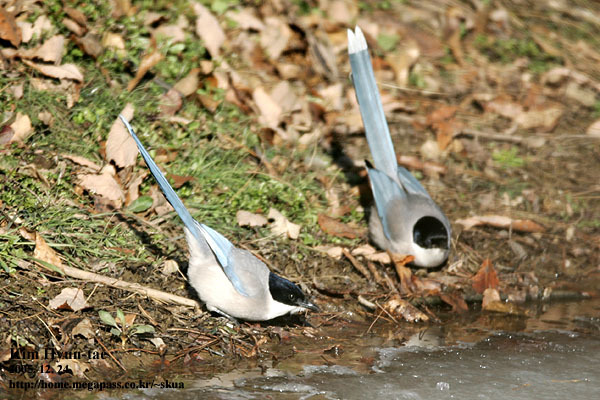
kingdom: Animalia
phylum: Chordata
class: Aves
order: Passeriformes
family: Corvidae
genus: Cyanopica
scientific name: Cyanopica cyanus
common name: Azure-winged magpie
